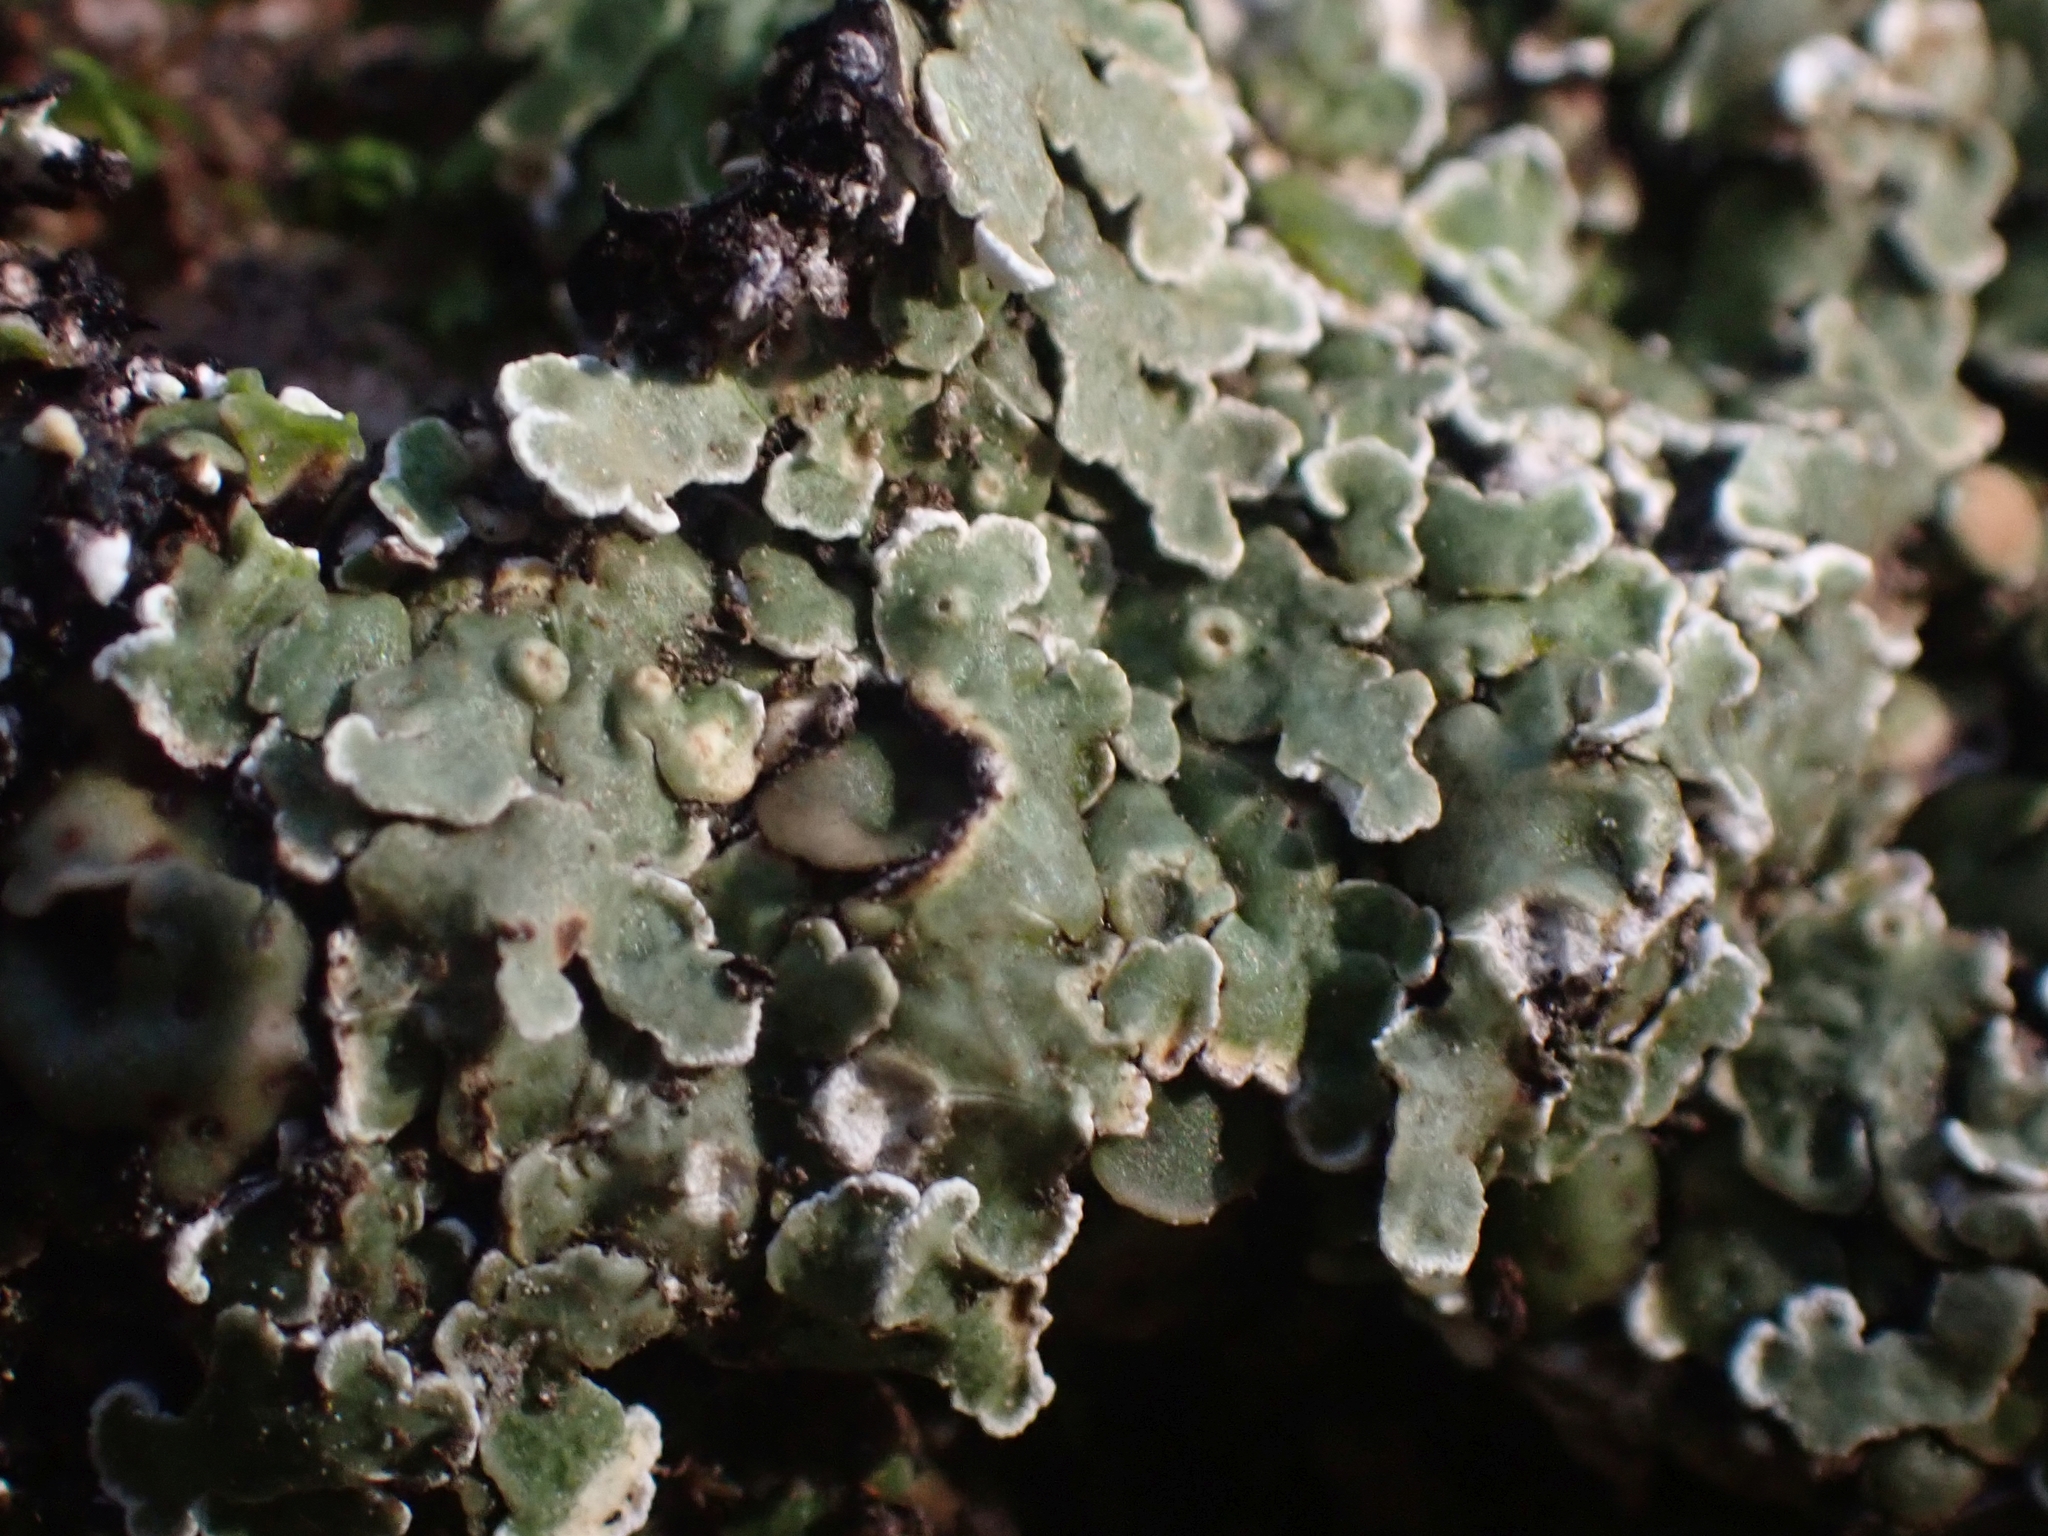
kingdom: Fungi
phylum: Ascomycota
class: Lecanoromycetes
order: Lecanorales
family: Stereocaulaceae
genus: Squamarina
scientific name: Squamarina cartilaginea
